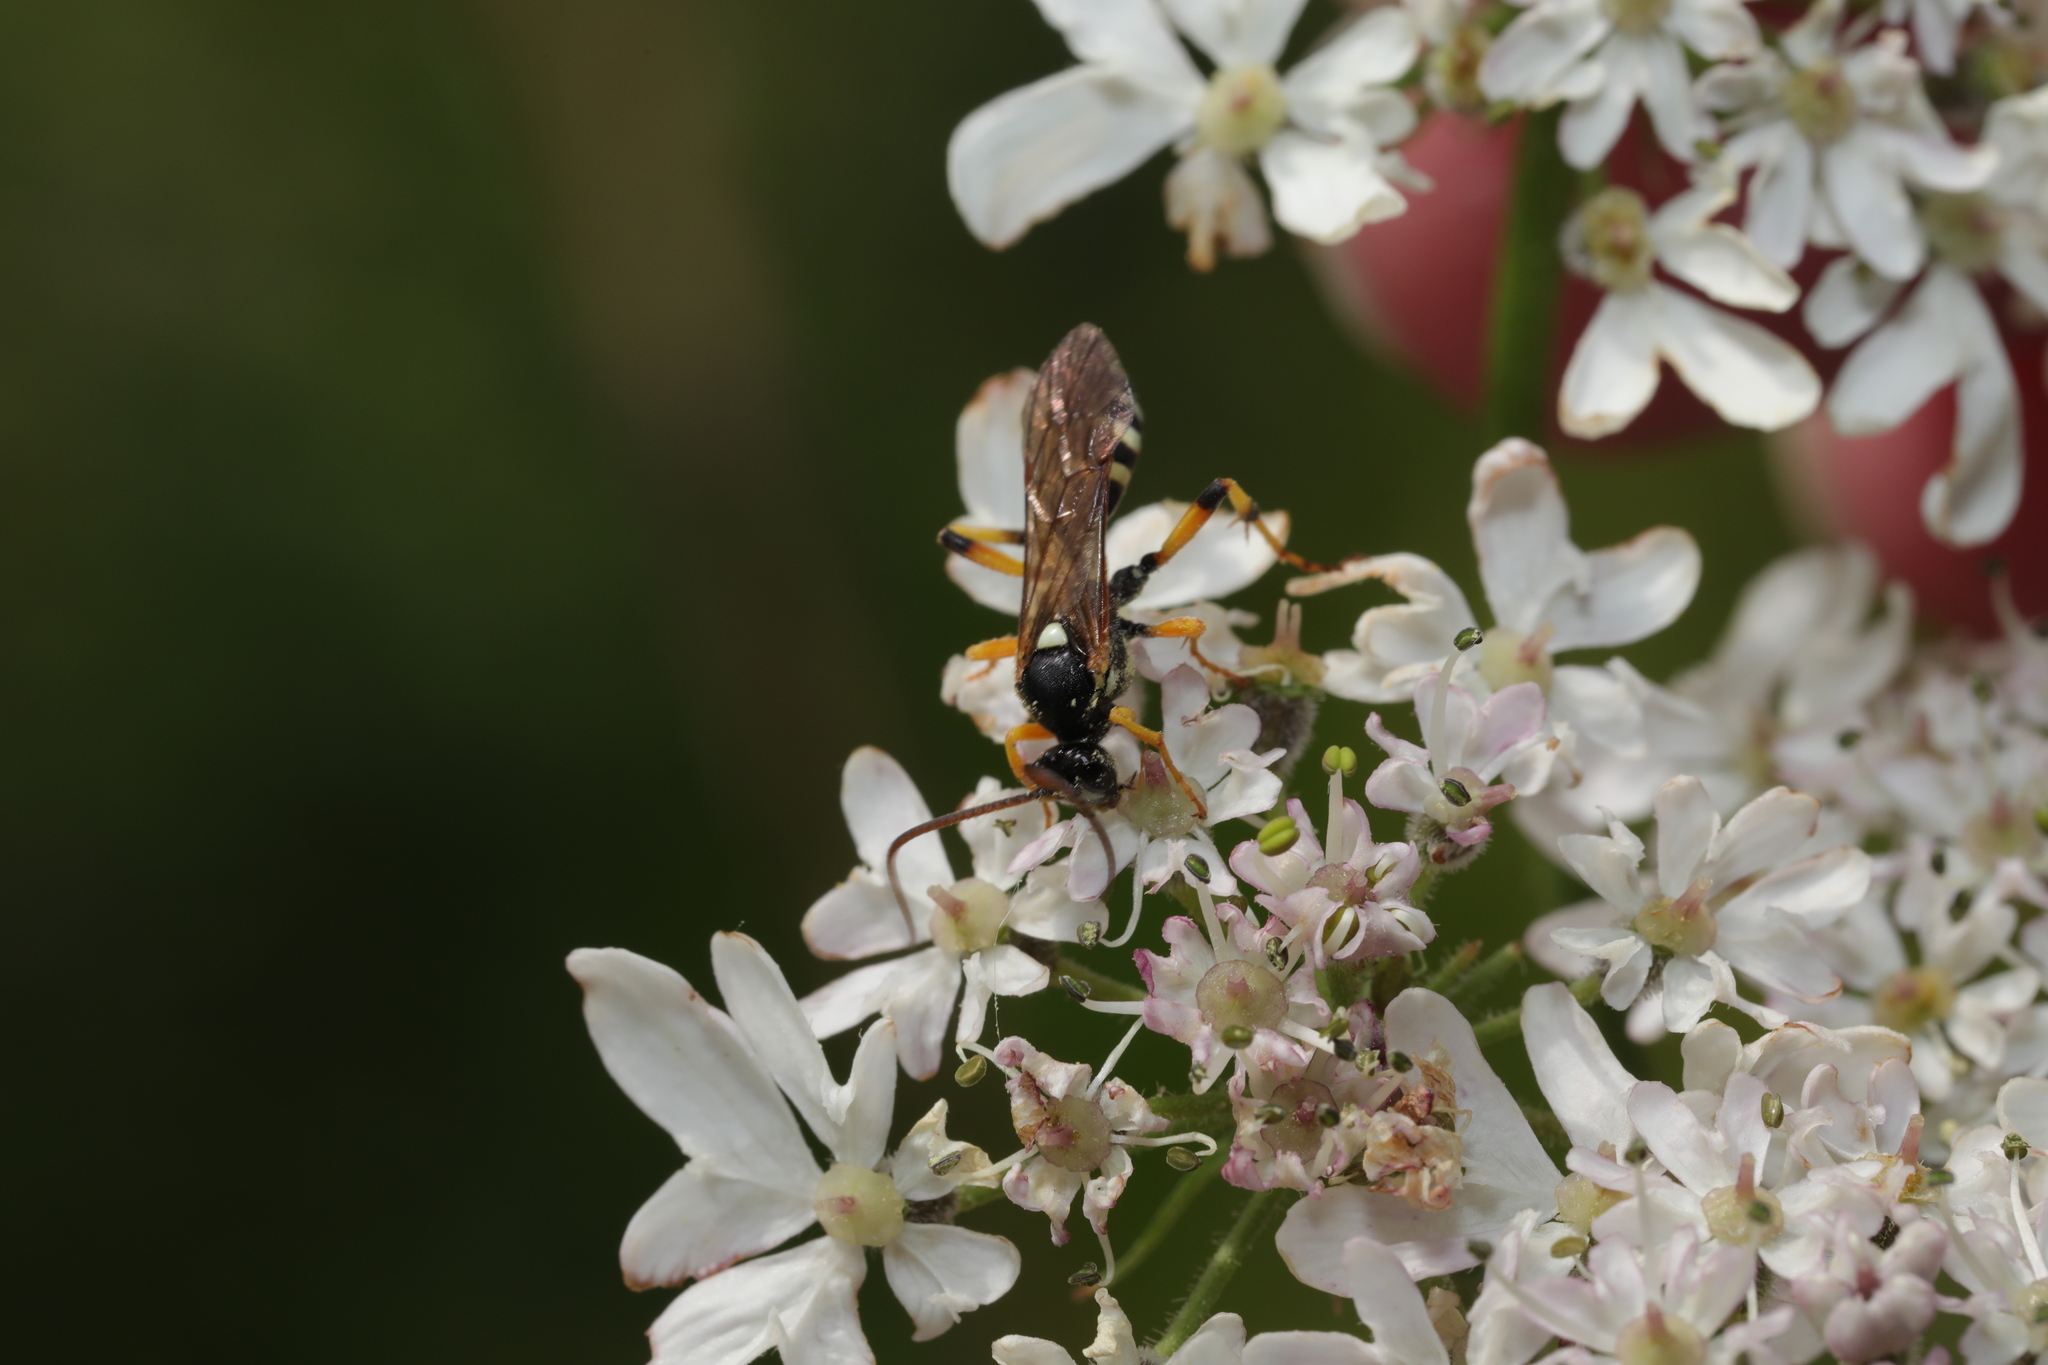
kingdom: Animalia
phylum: Arthropoda
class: Insecta
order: Hymenoptera
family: Ichneumonidae
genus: Ichneumon
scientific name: Ichneumon sarcitorius
